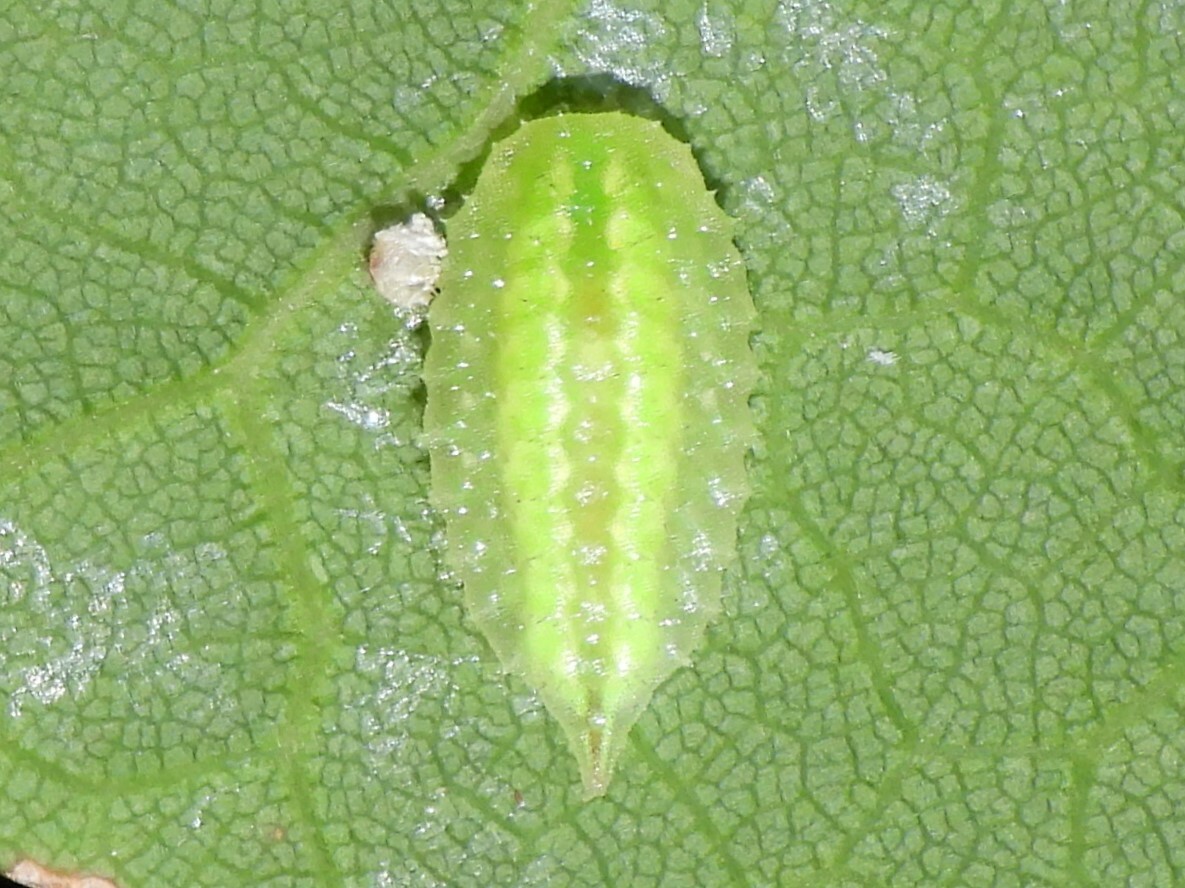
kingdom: Animalia
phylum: Arthropoda
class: Insecta
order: Lepidoptera
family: Limacodidae
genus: Packardia
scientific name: Packardia elegans
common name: Elegant tailed slug moth
